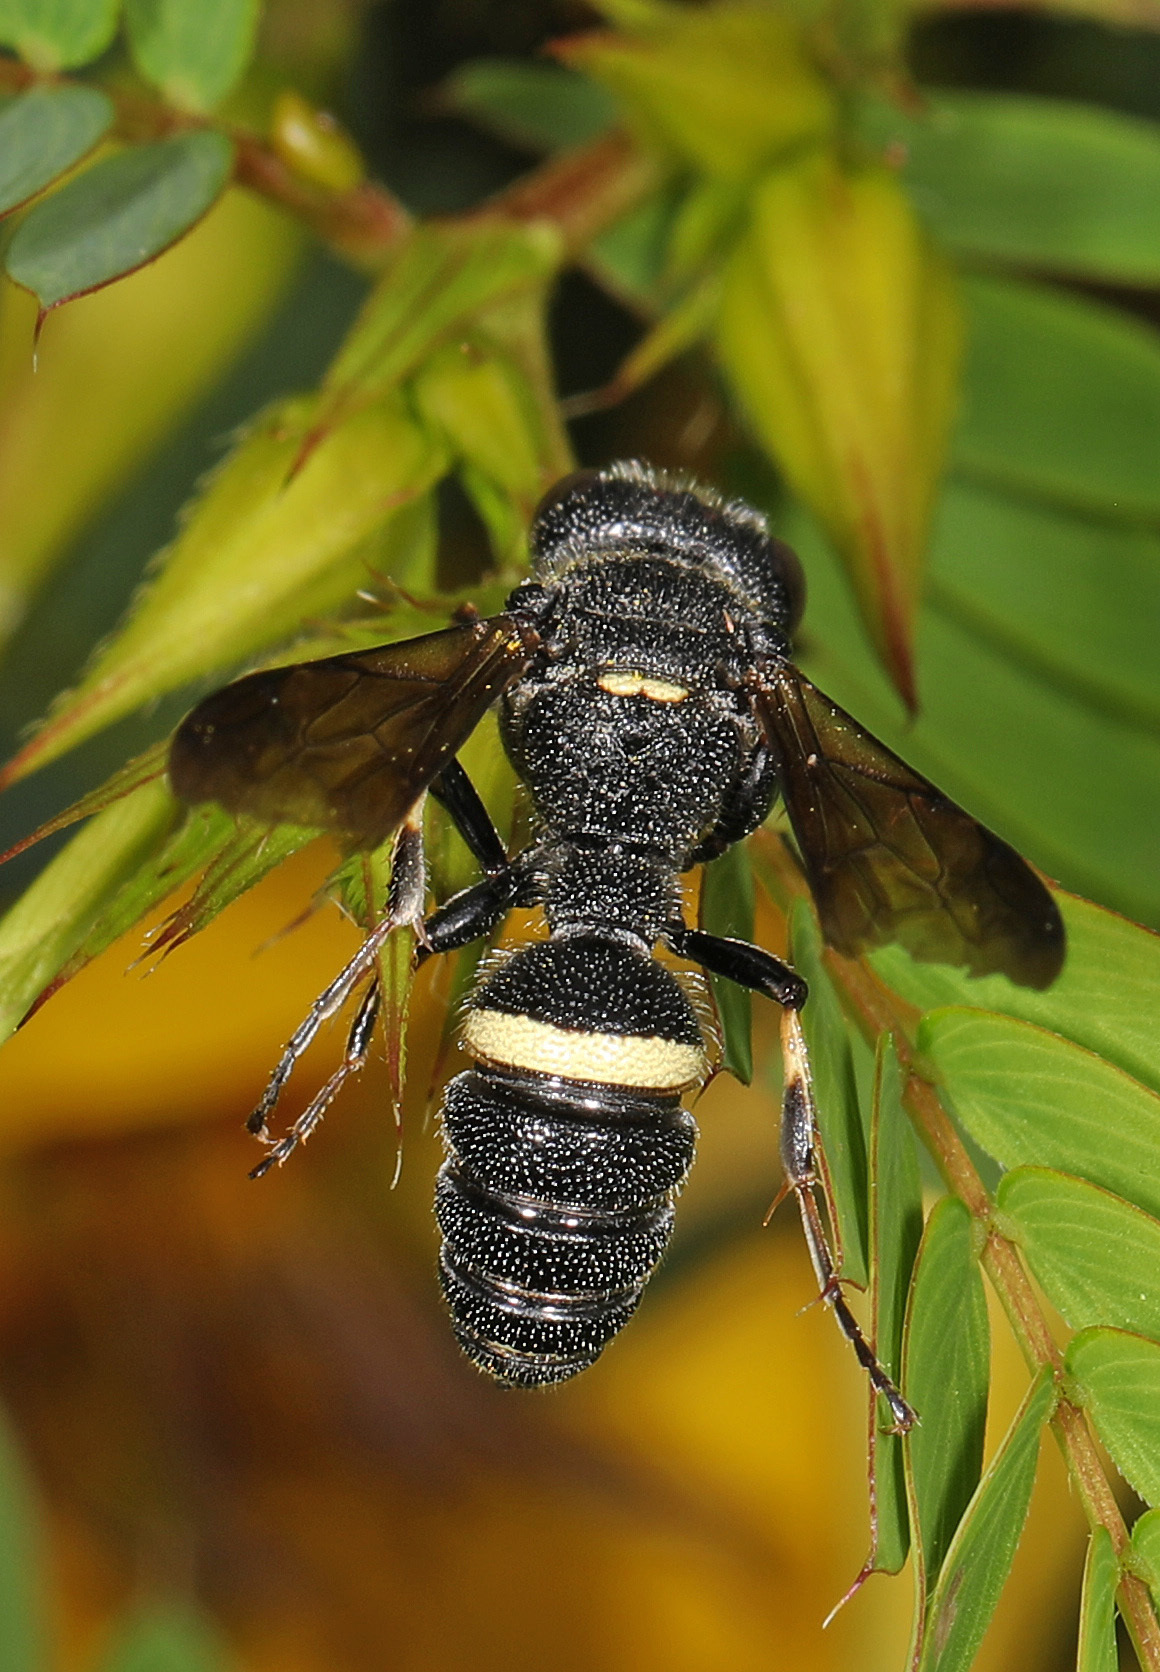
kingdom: Animalia
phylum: Arthropoda
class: Insecta
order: Hymenoptera
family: Crabronidae
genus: Cerceris
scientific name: Cerceris fumipennis
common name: Smokey-winged beetle bandit wasp
